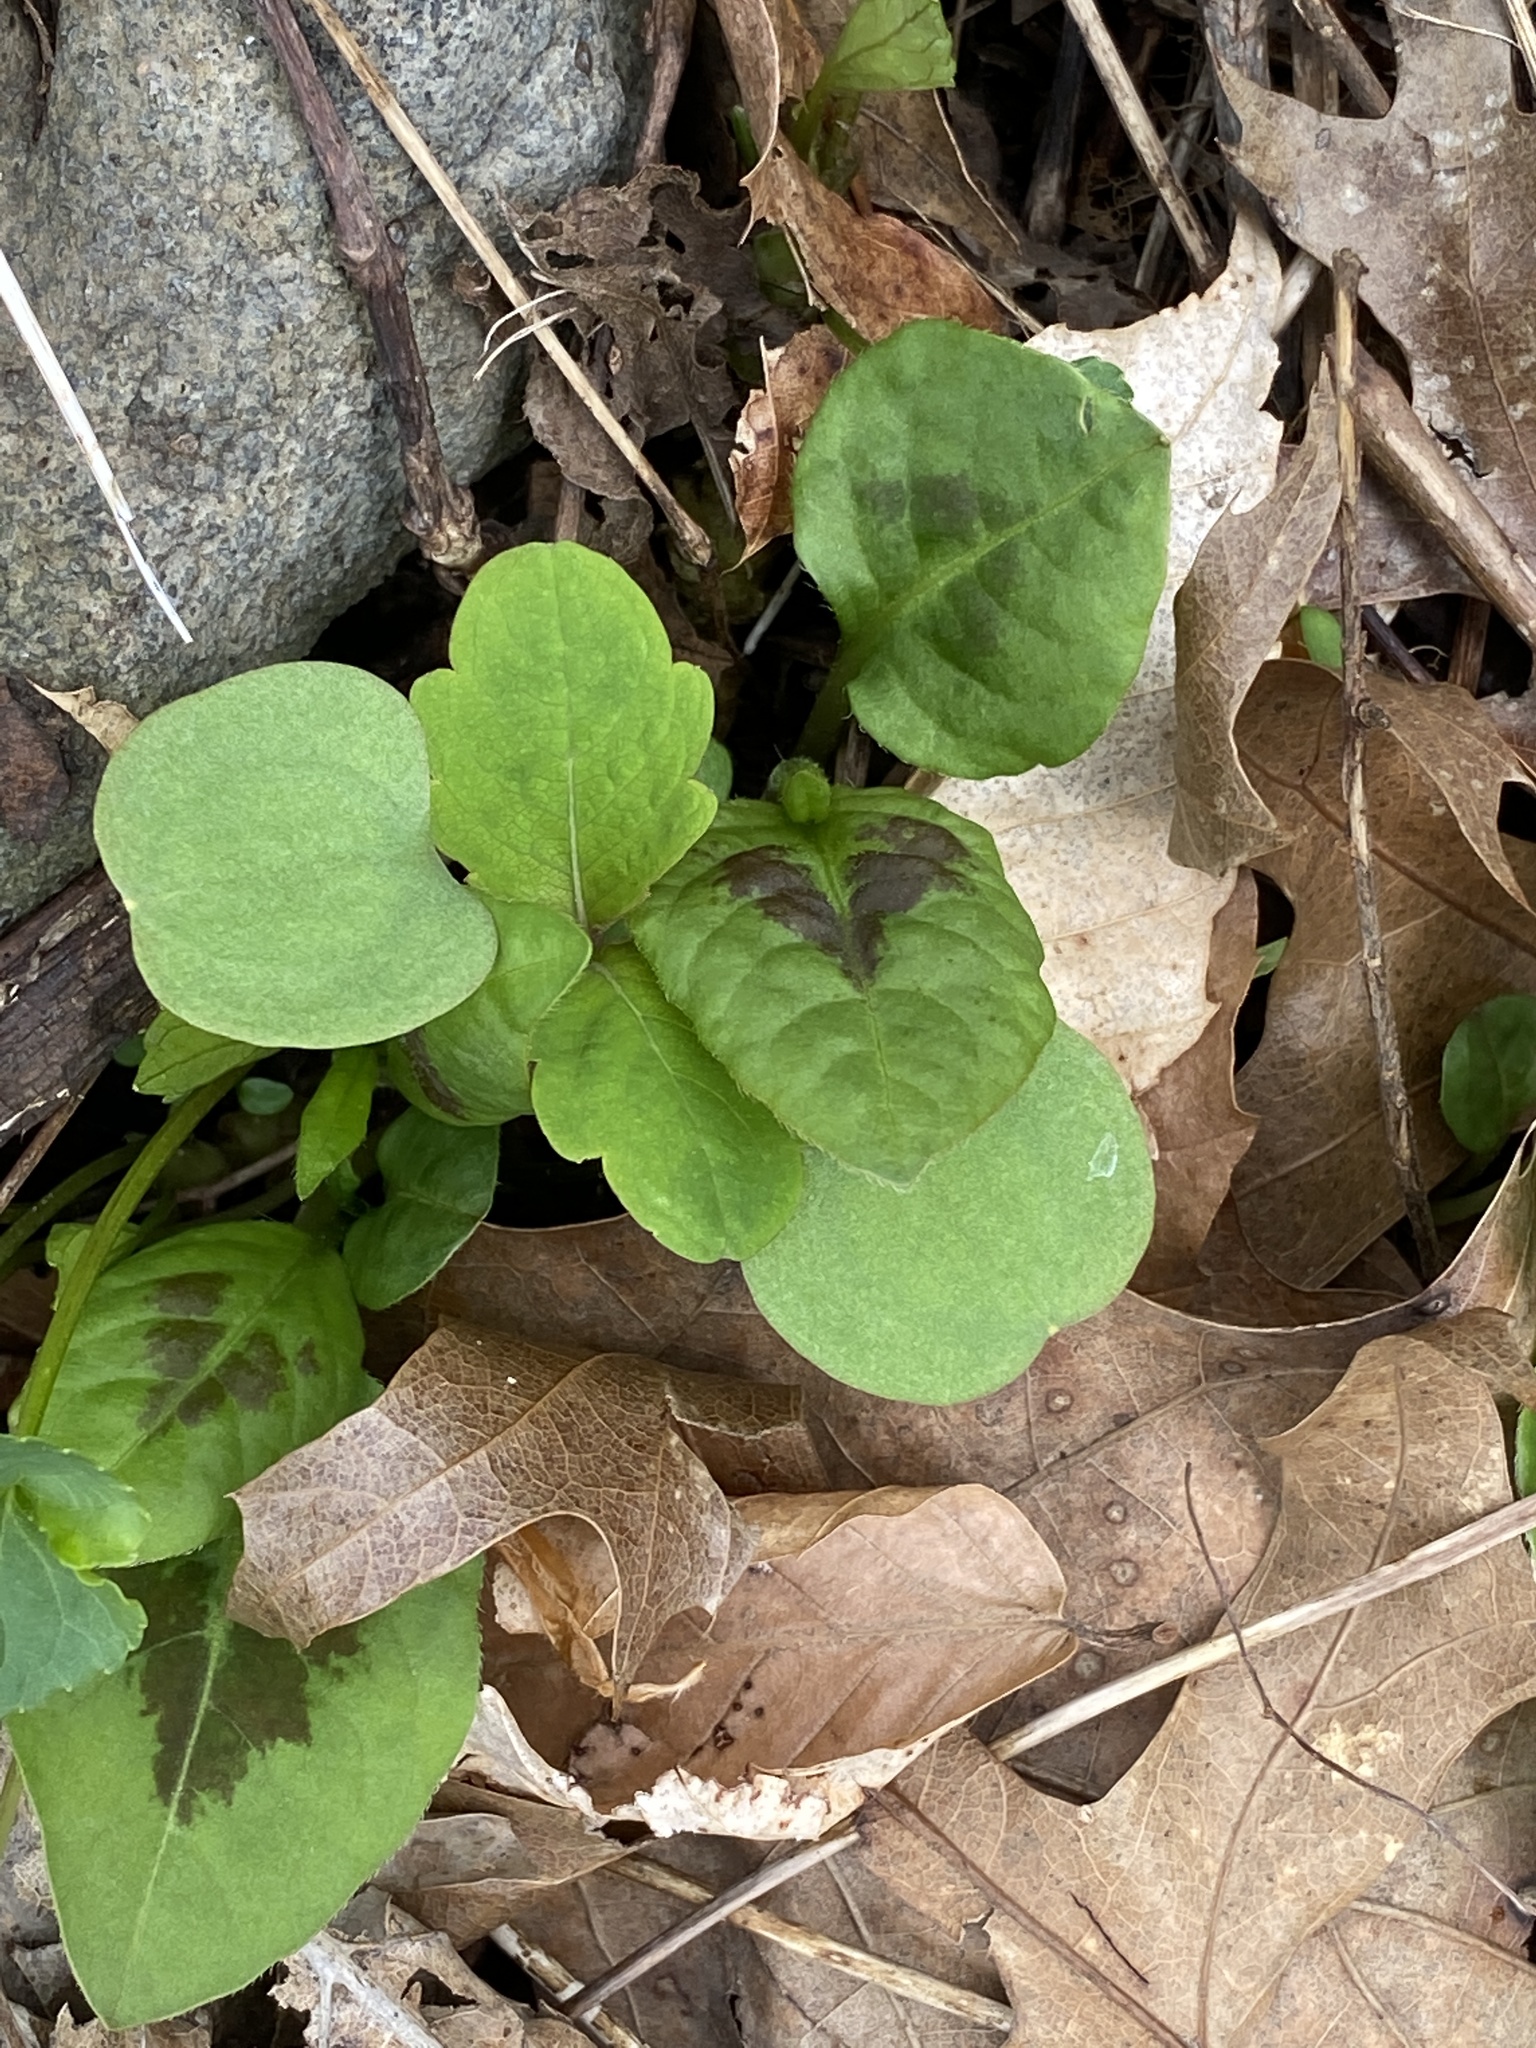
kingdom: Plantae
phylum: Tracheophyta
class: Magnoliopsida
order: Ericales
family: Balsaminaceae
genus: Impatiens
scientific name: Impatiens capensis
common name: Orange balsam
